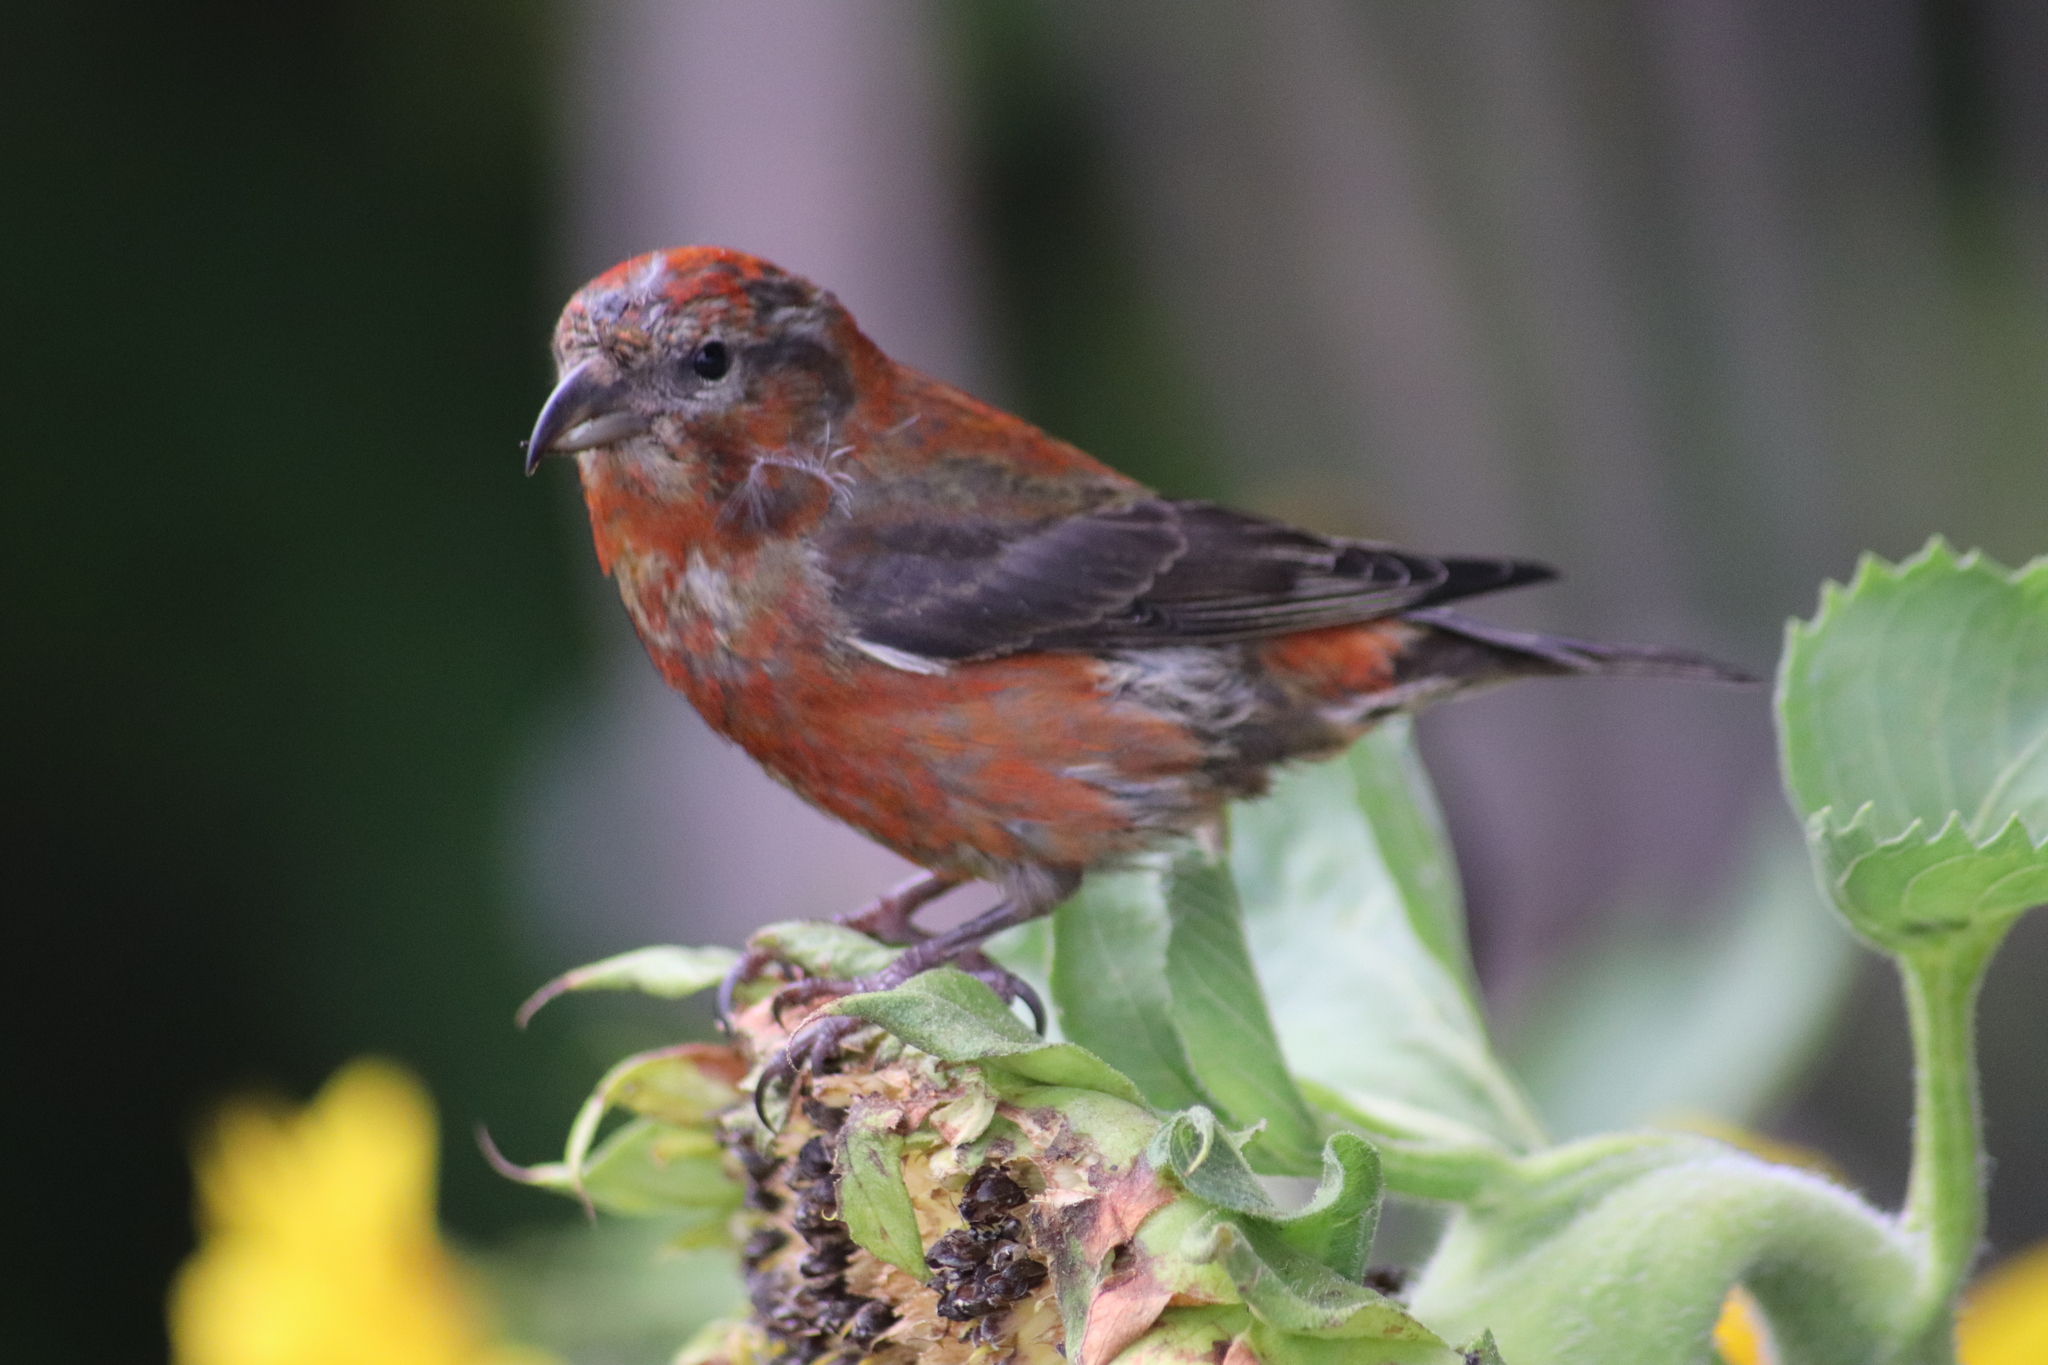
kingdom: Animalia
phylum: Chordata
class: Aves
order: Passeriformes
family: Fringillidae
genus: Loxia
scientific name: Loxia curvirostra
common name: Red crossbill
